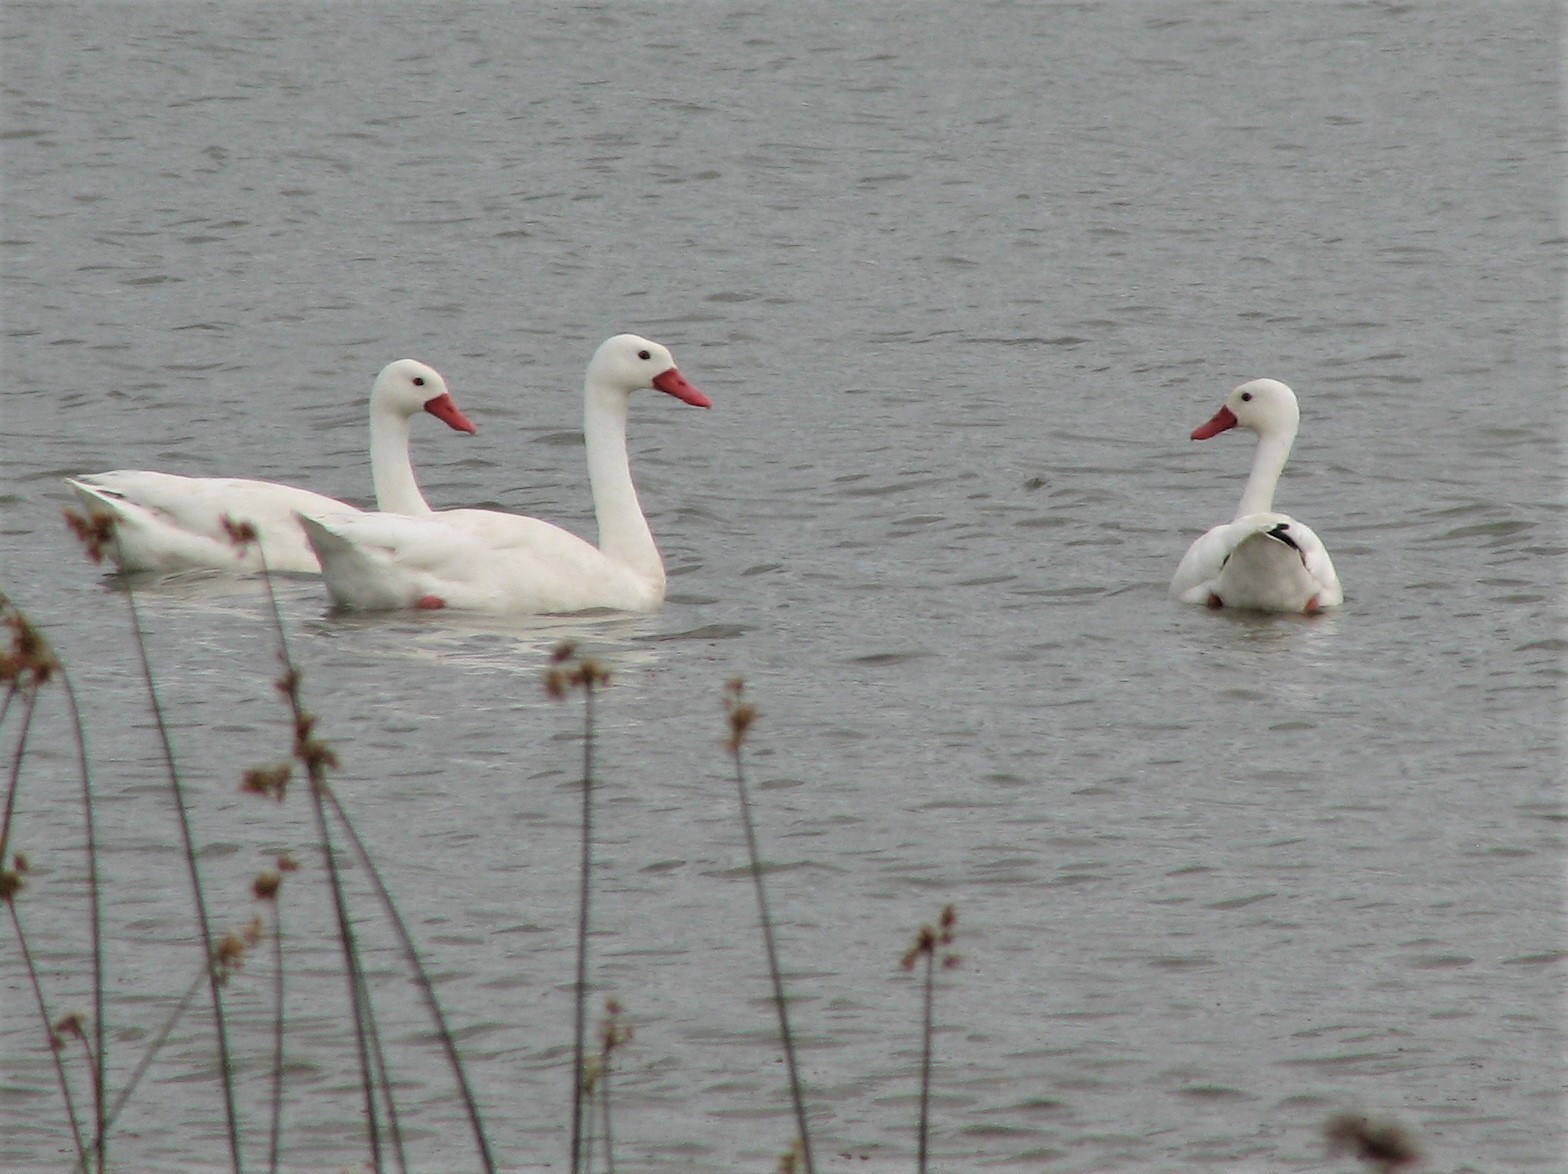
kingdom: Animalia
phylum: Chordata
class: Aves
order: Anseriformes
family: Anatidae
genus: Coscoroba
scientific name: Coscoroba coscoroba
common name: Coscoroba swan
